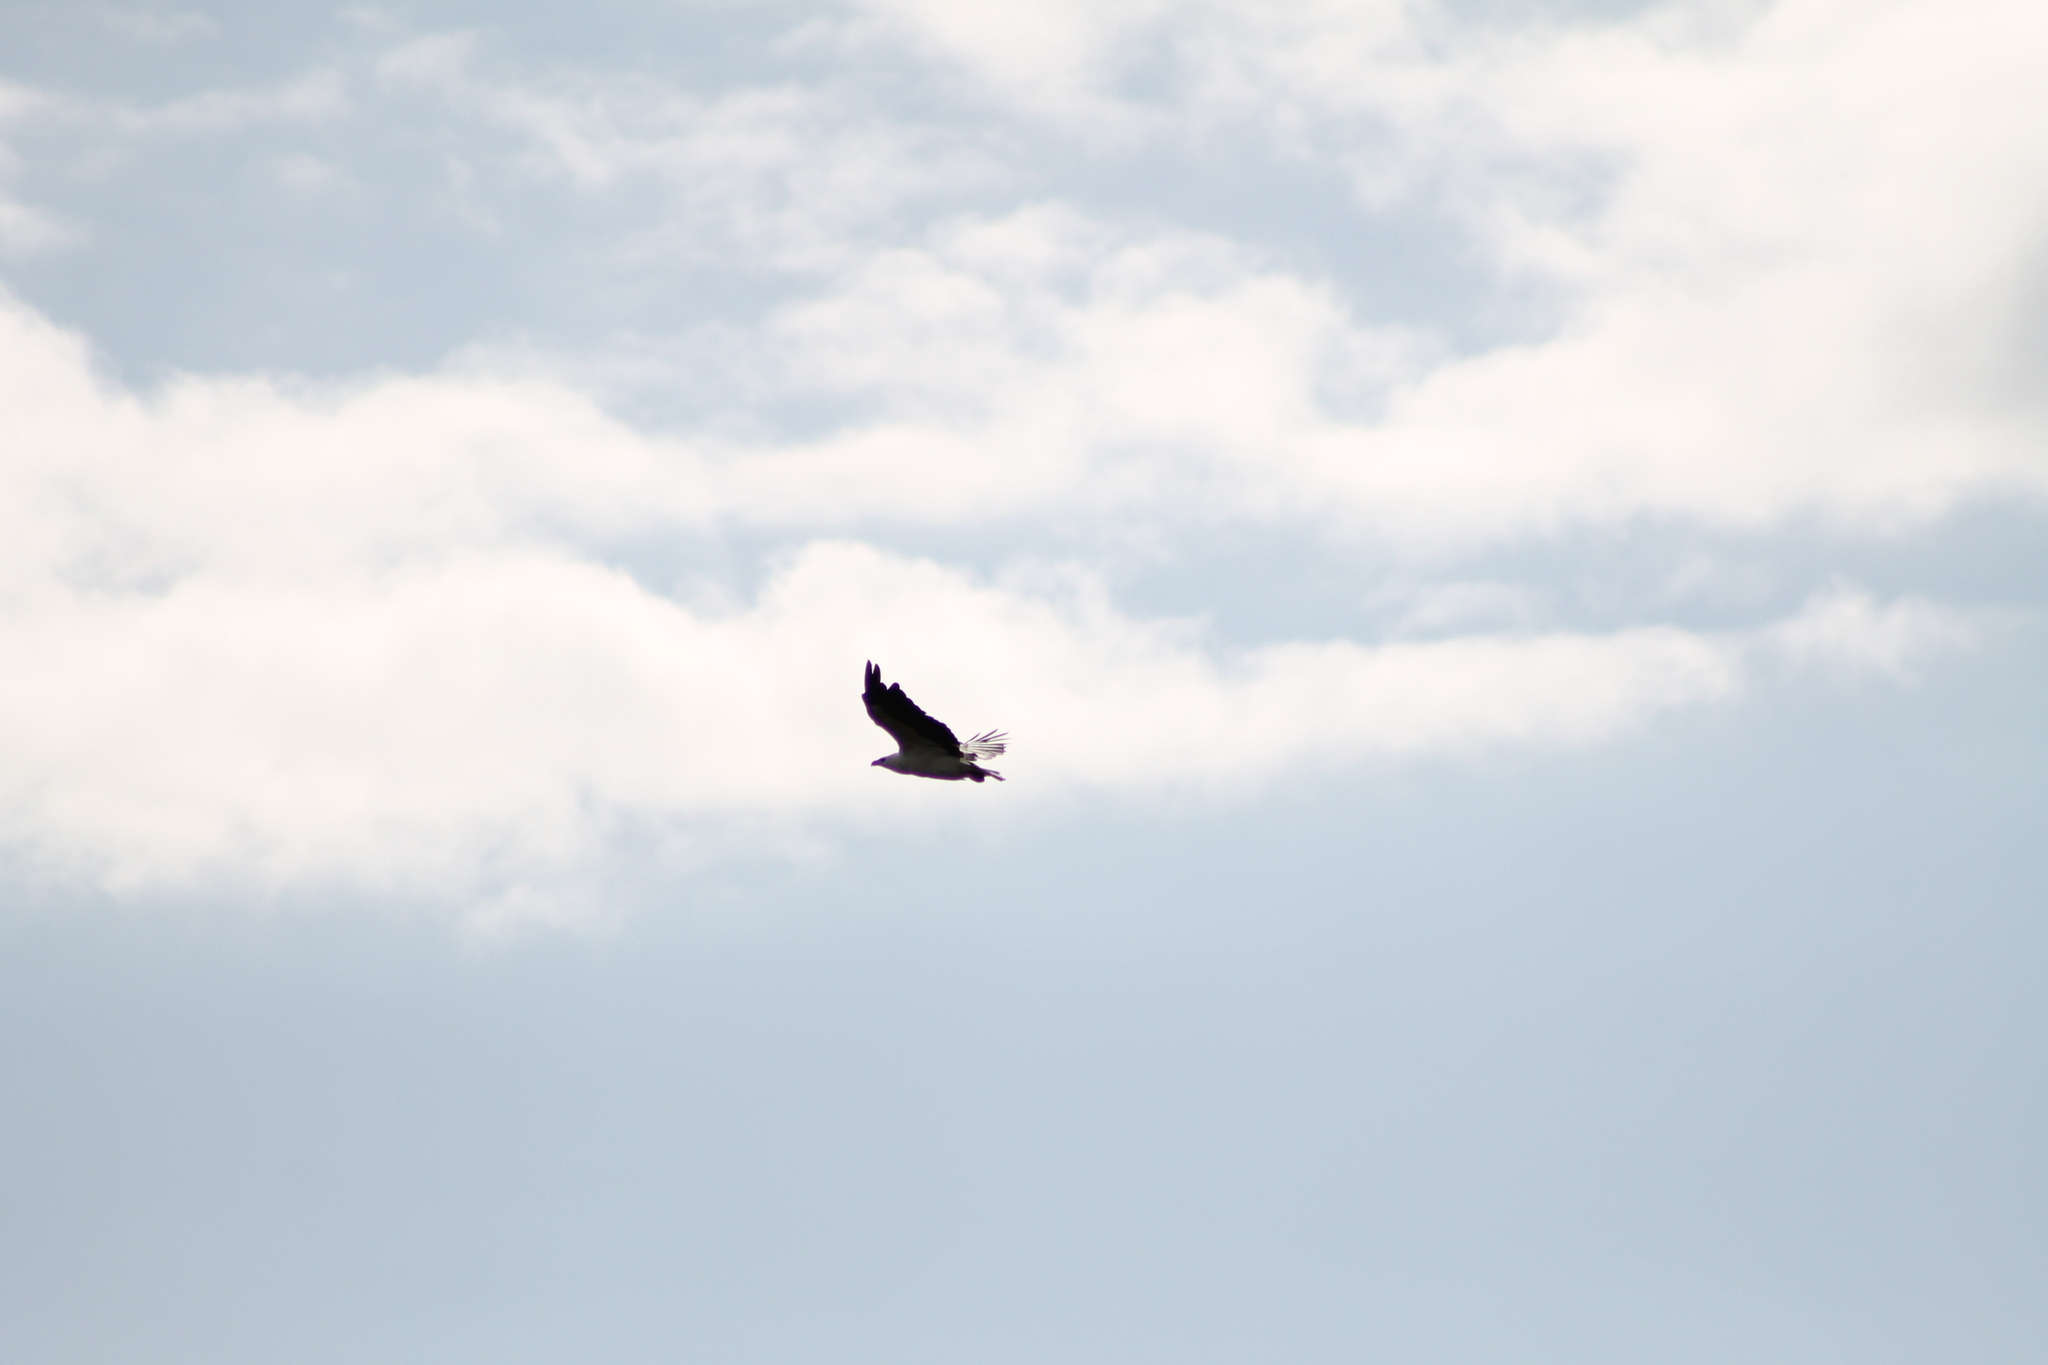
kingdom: Animalia
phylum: Chordata
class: Aves
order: Accipitriformes
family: Accipitridae
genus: Haliaeetus
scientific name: Haliaeetus leucogaster
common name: White-bellied sea eagle
